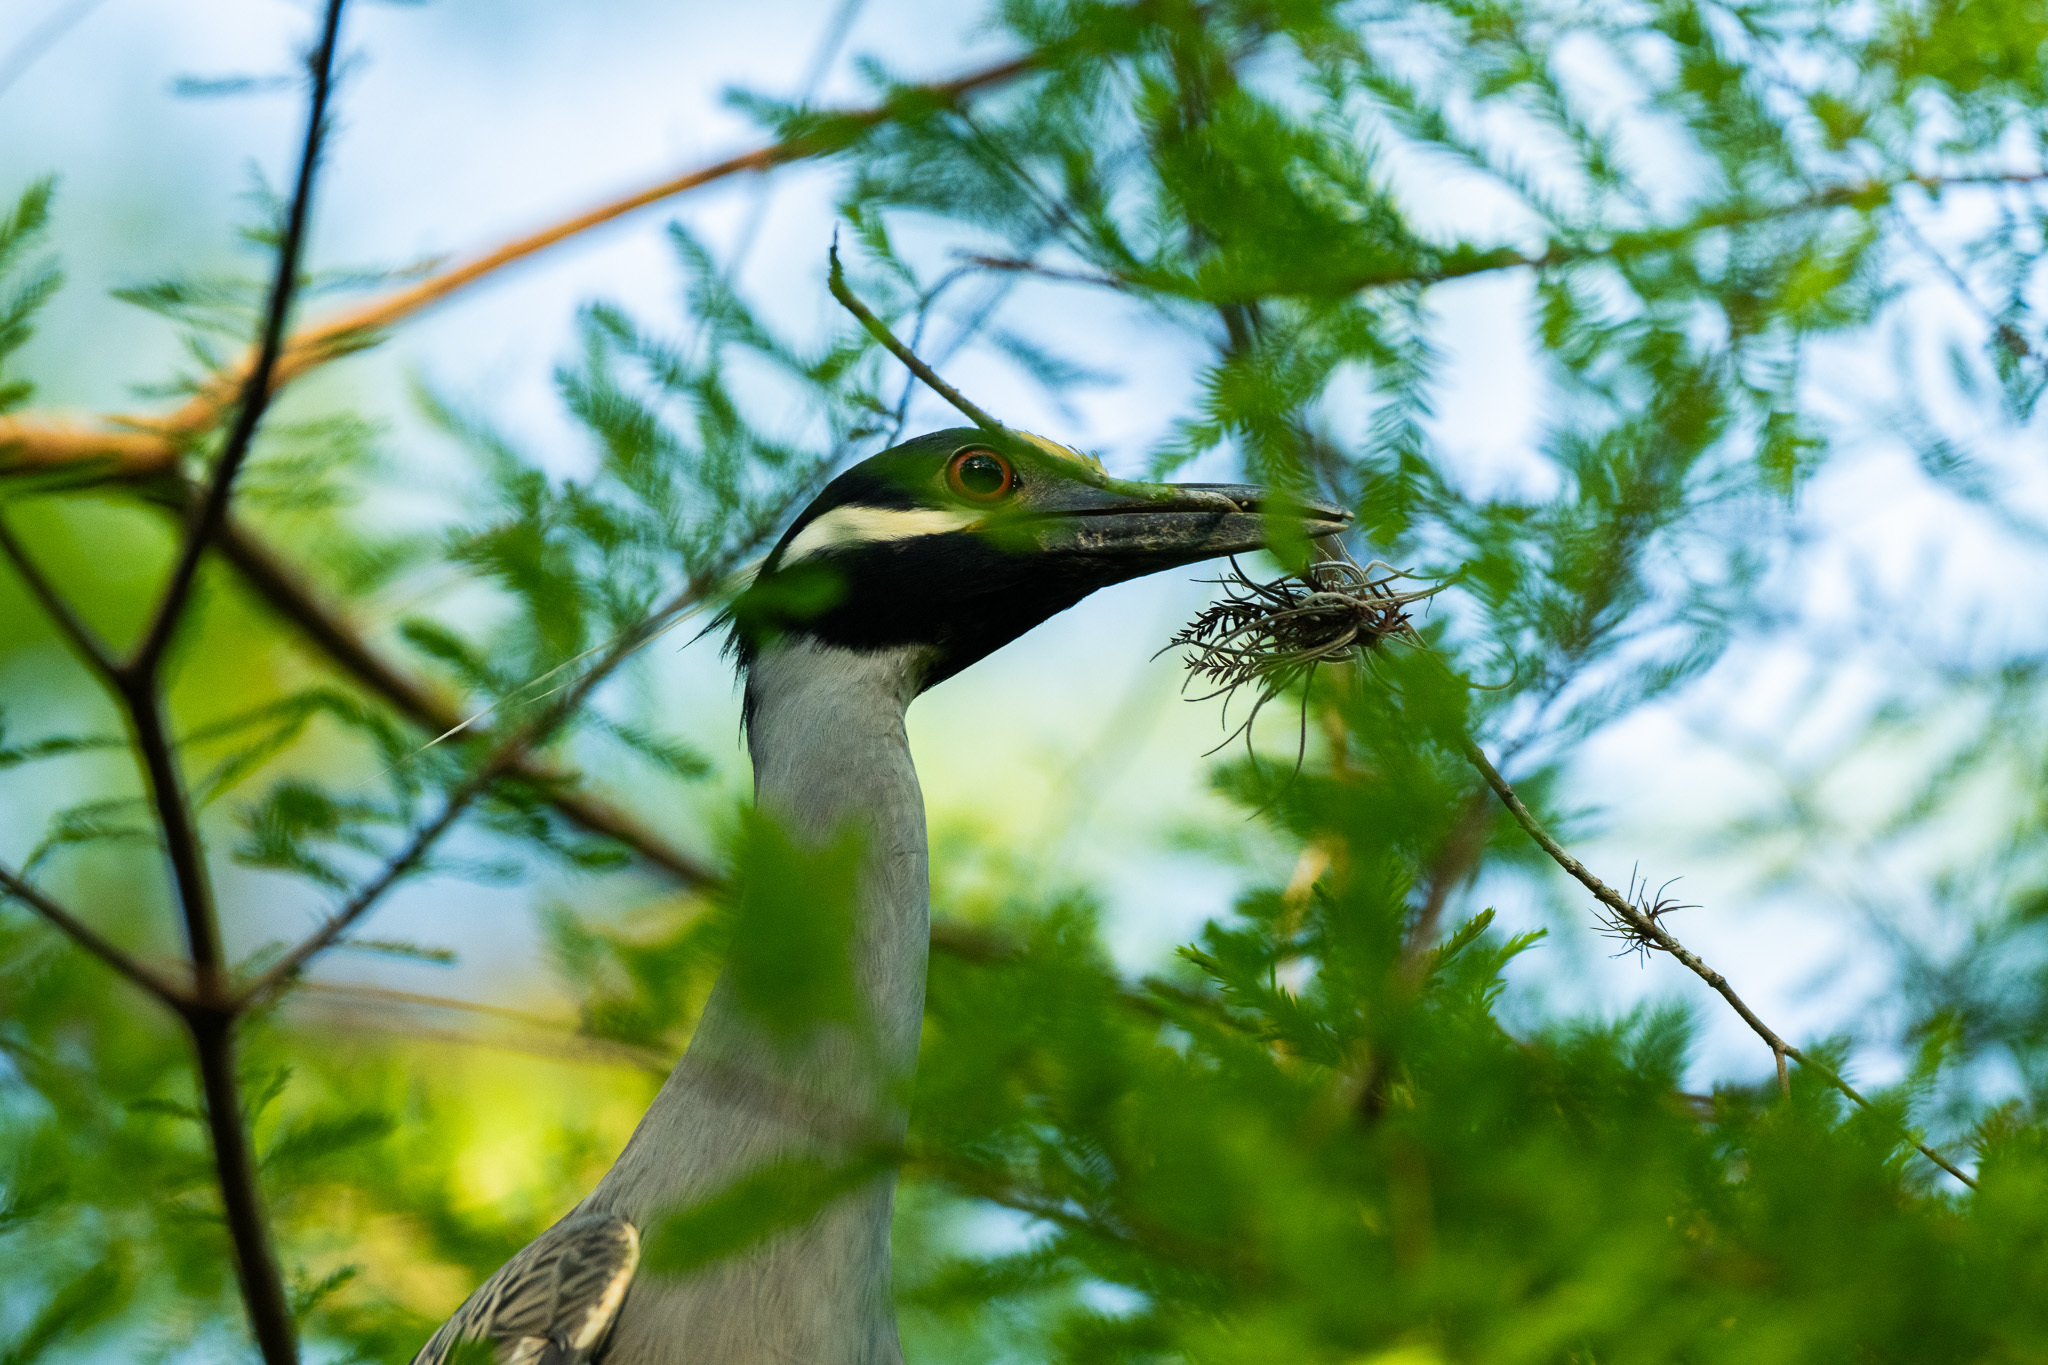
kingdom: Animalia
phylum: Chordata
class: Aves
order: Pelecaniformes
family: Ardeidae
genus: Nyctanassa
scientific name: Nyctanassa violacea
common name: Yellow-crowned night heron
